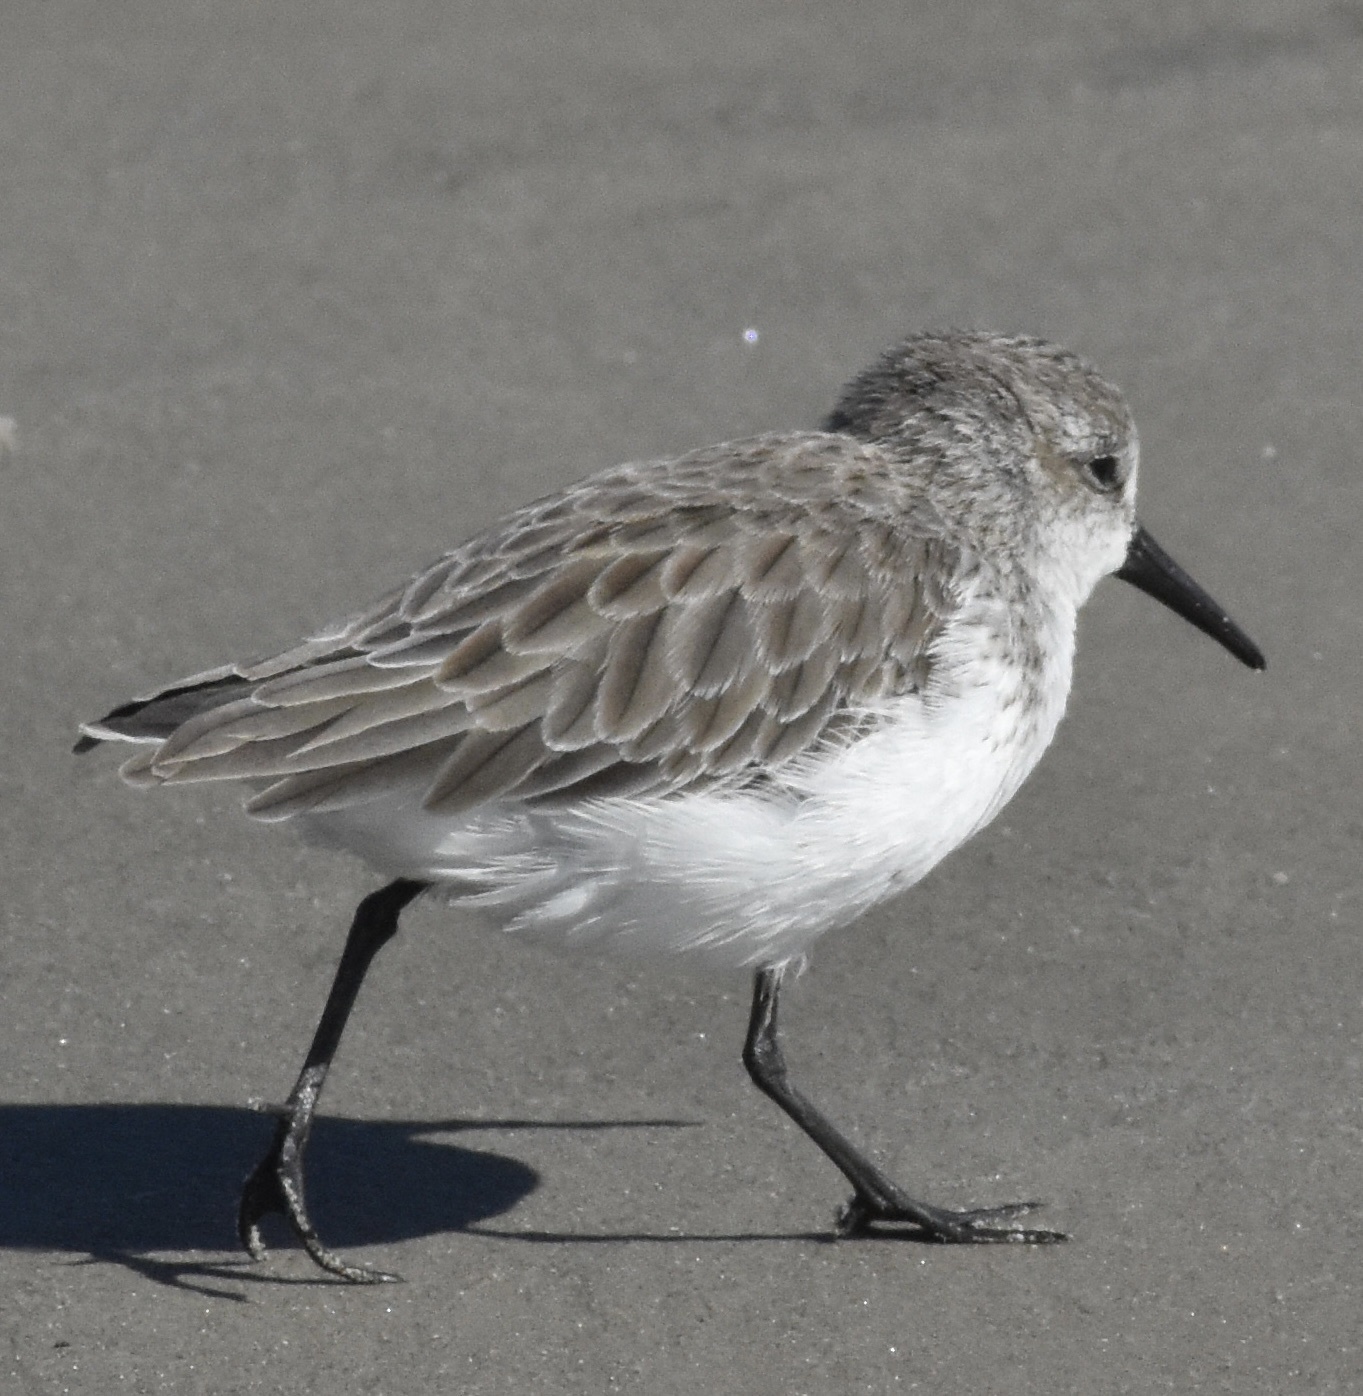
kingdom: Animalia
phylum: Chordata
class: Aves
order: Charadriiformes
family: Scolopacidae
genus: Calidris
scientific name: Calidris mauri
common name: Western sandpiper
